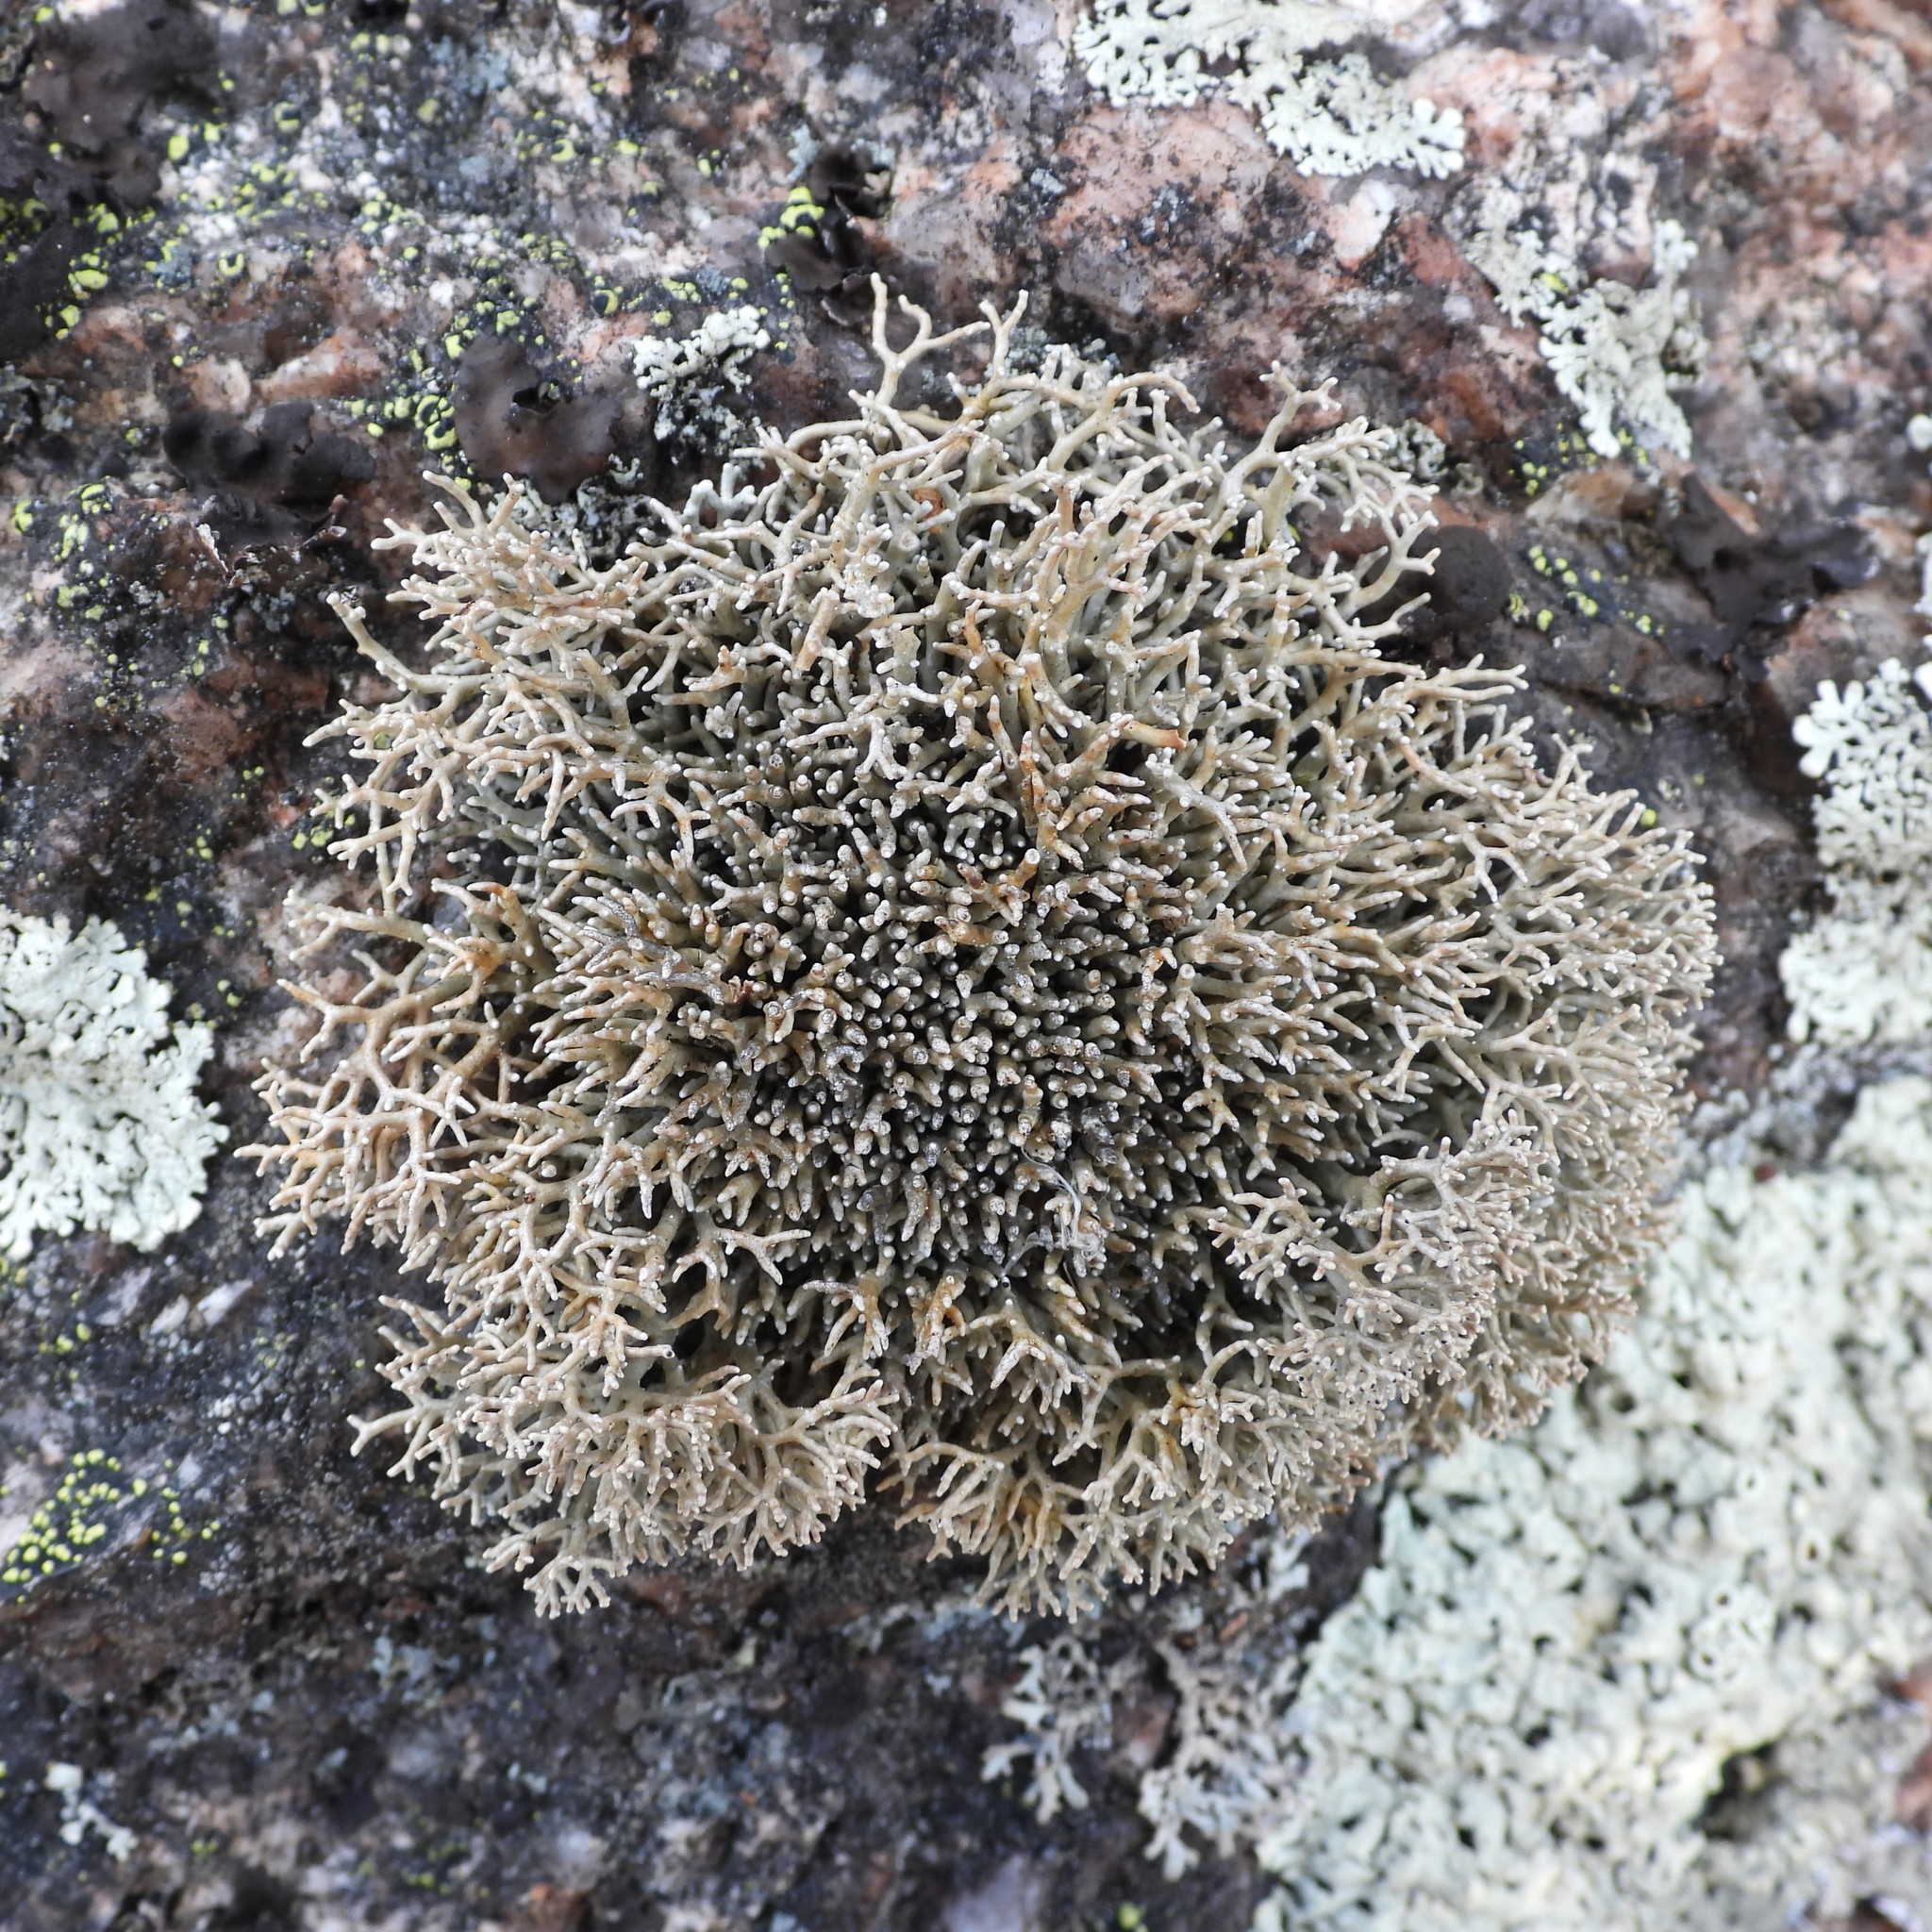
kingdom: Fungi
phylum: Ascomycota
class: Lecanoromycetes
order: Lecanorales
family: Sphaerophoraceae
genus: Sphaerophorus
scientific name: Sphaerophorus fragilis
